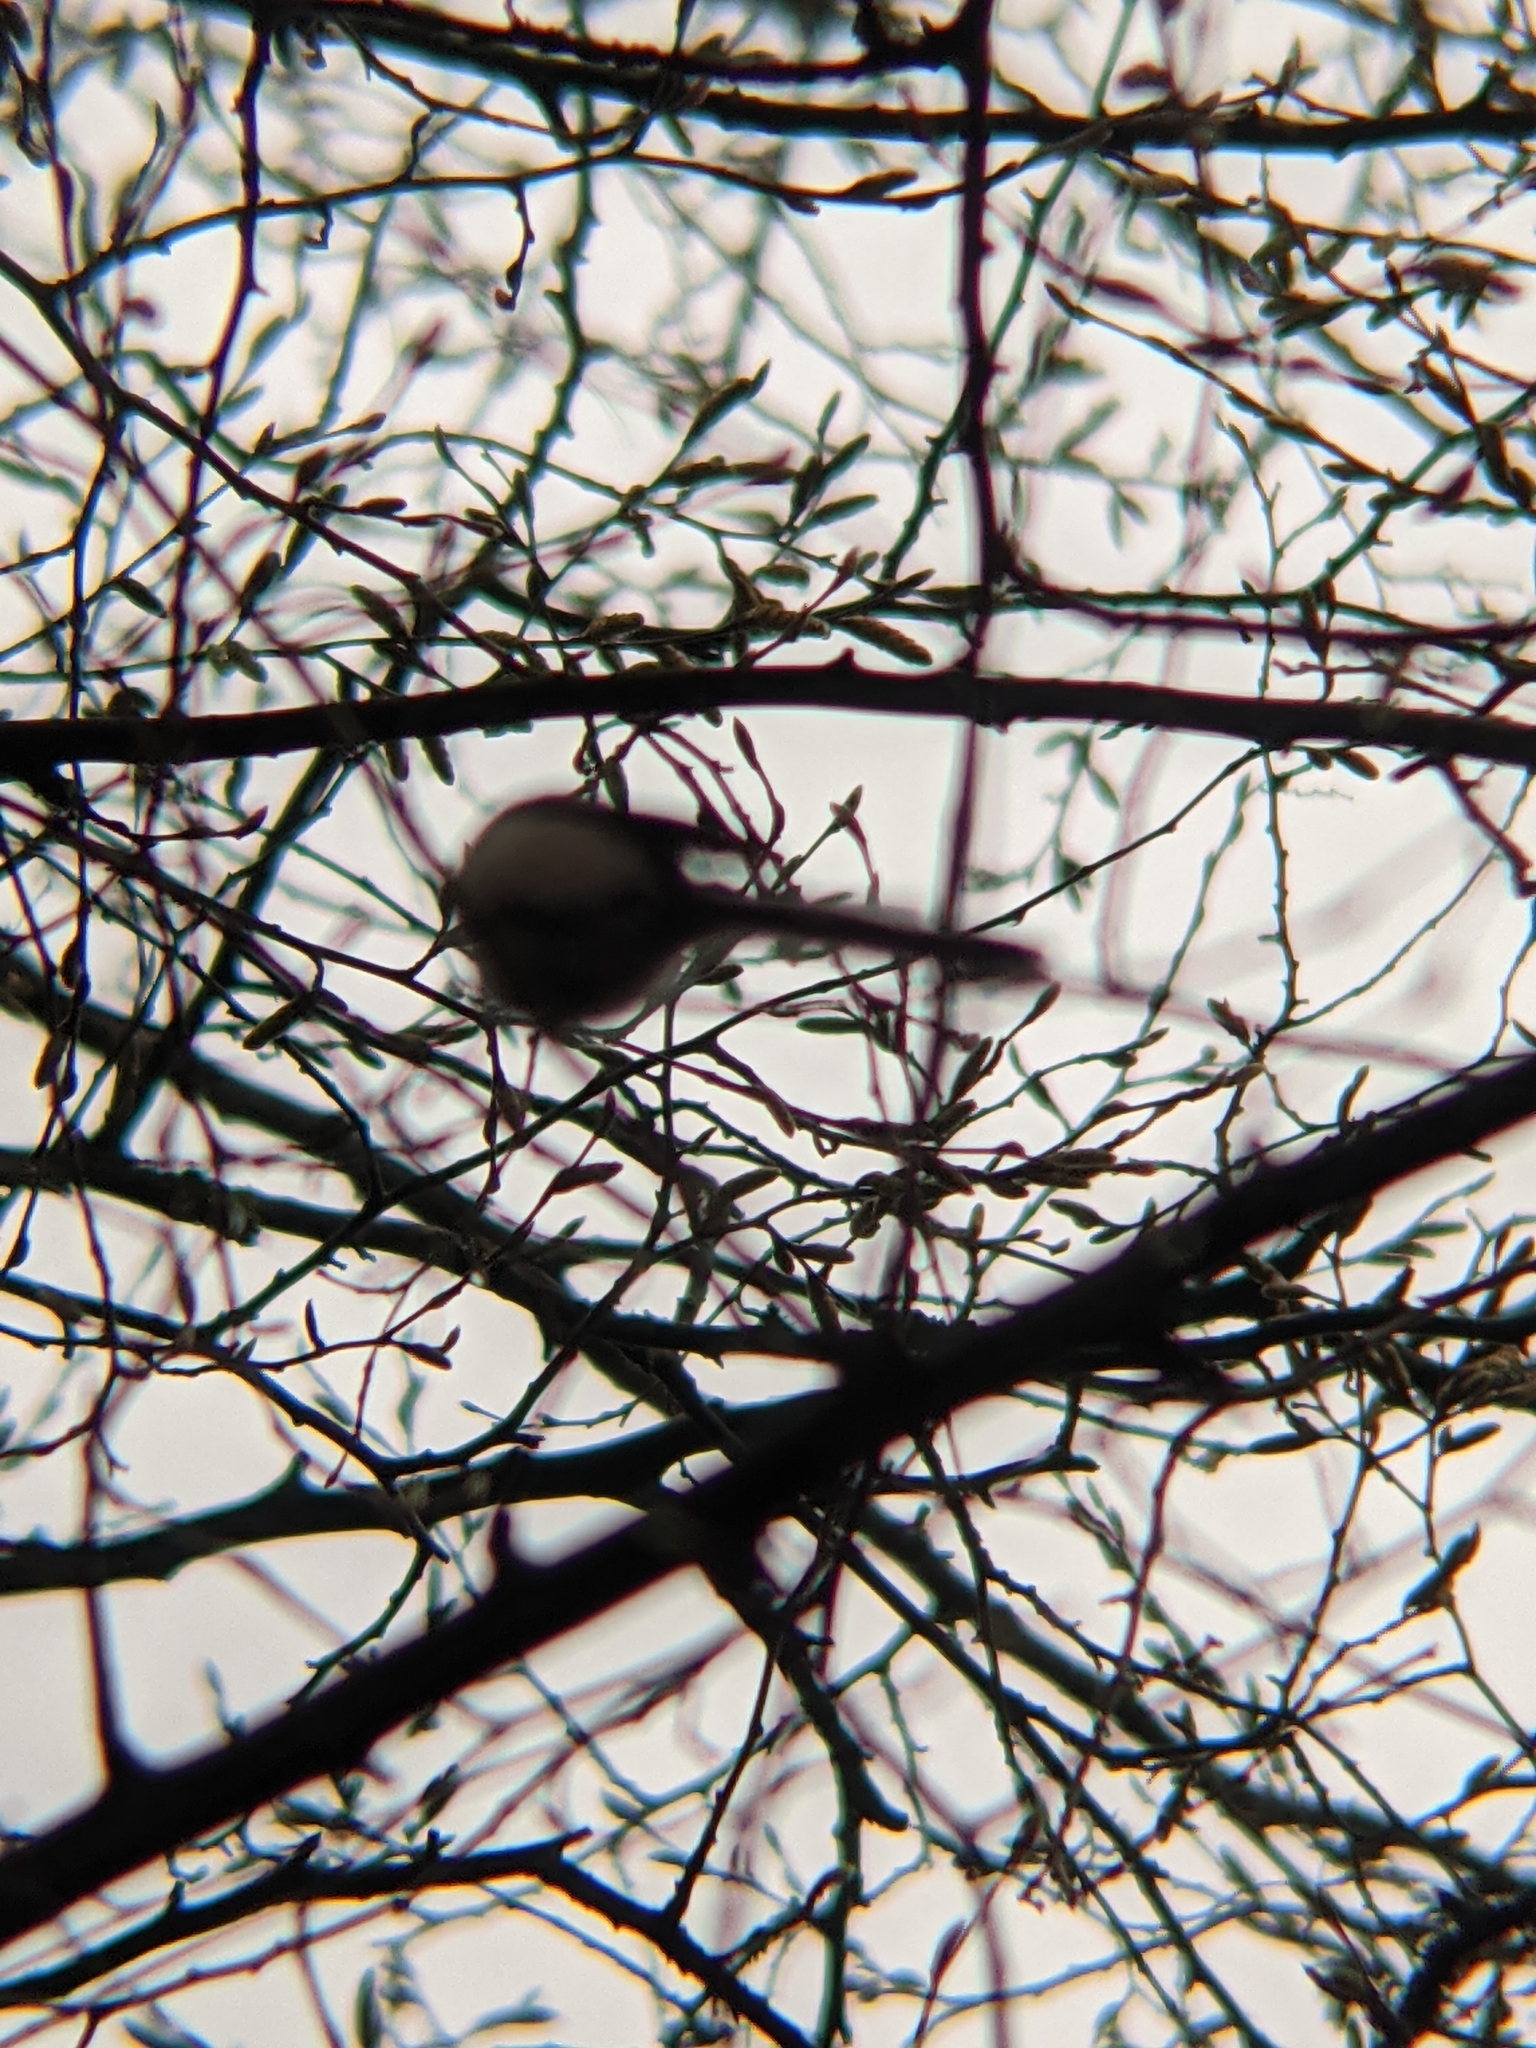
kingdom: Animalia
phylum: Chordata
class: Aves
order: Passeriformes
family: Aegithalidae
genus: Aegithalos
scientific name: Aegithalos caudatus
